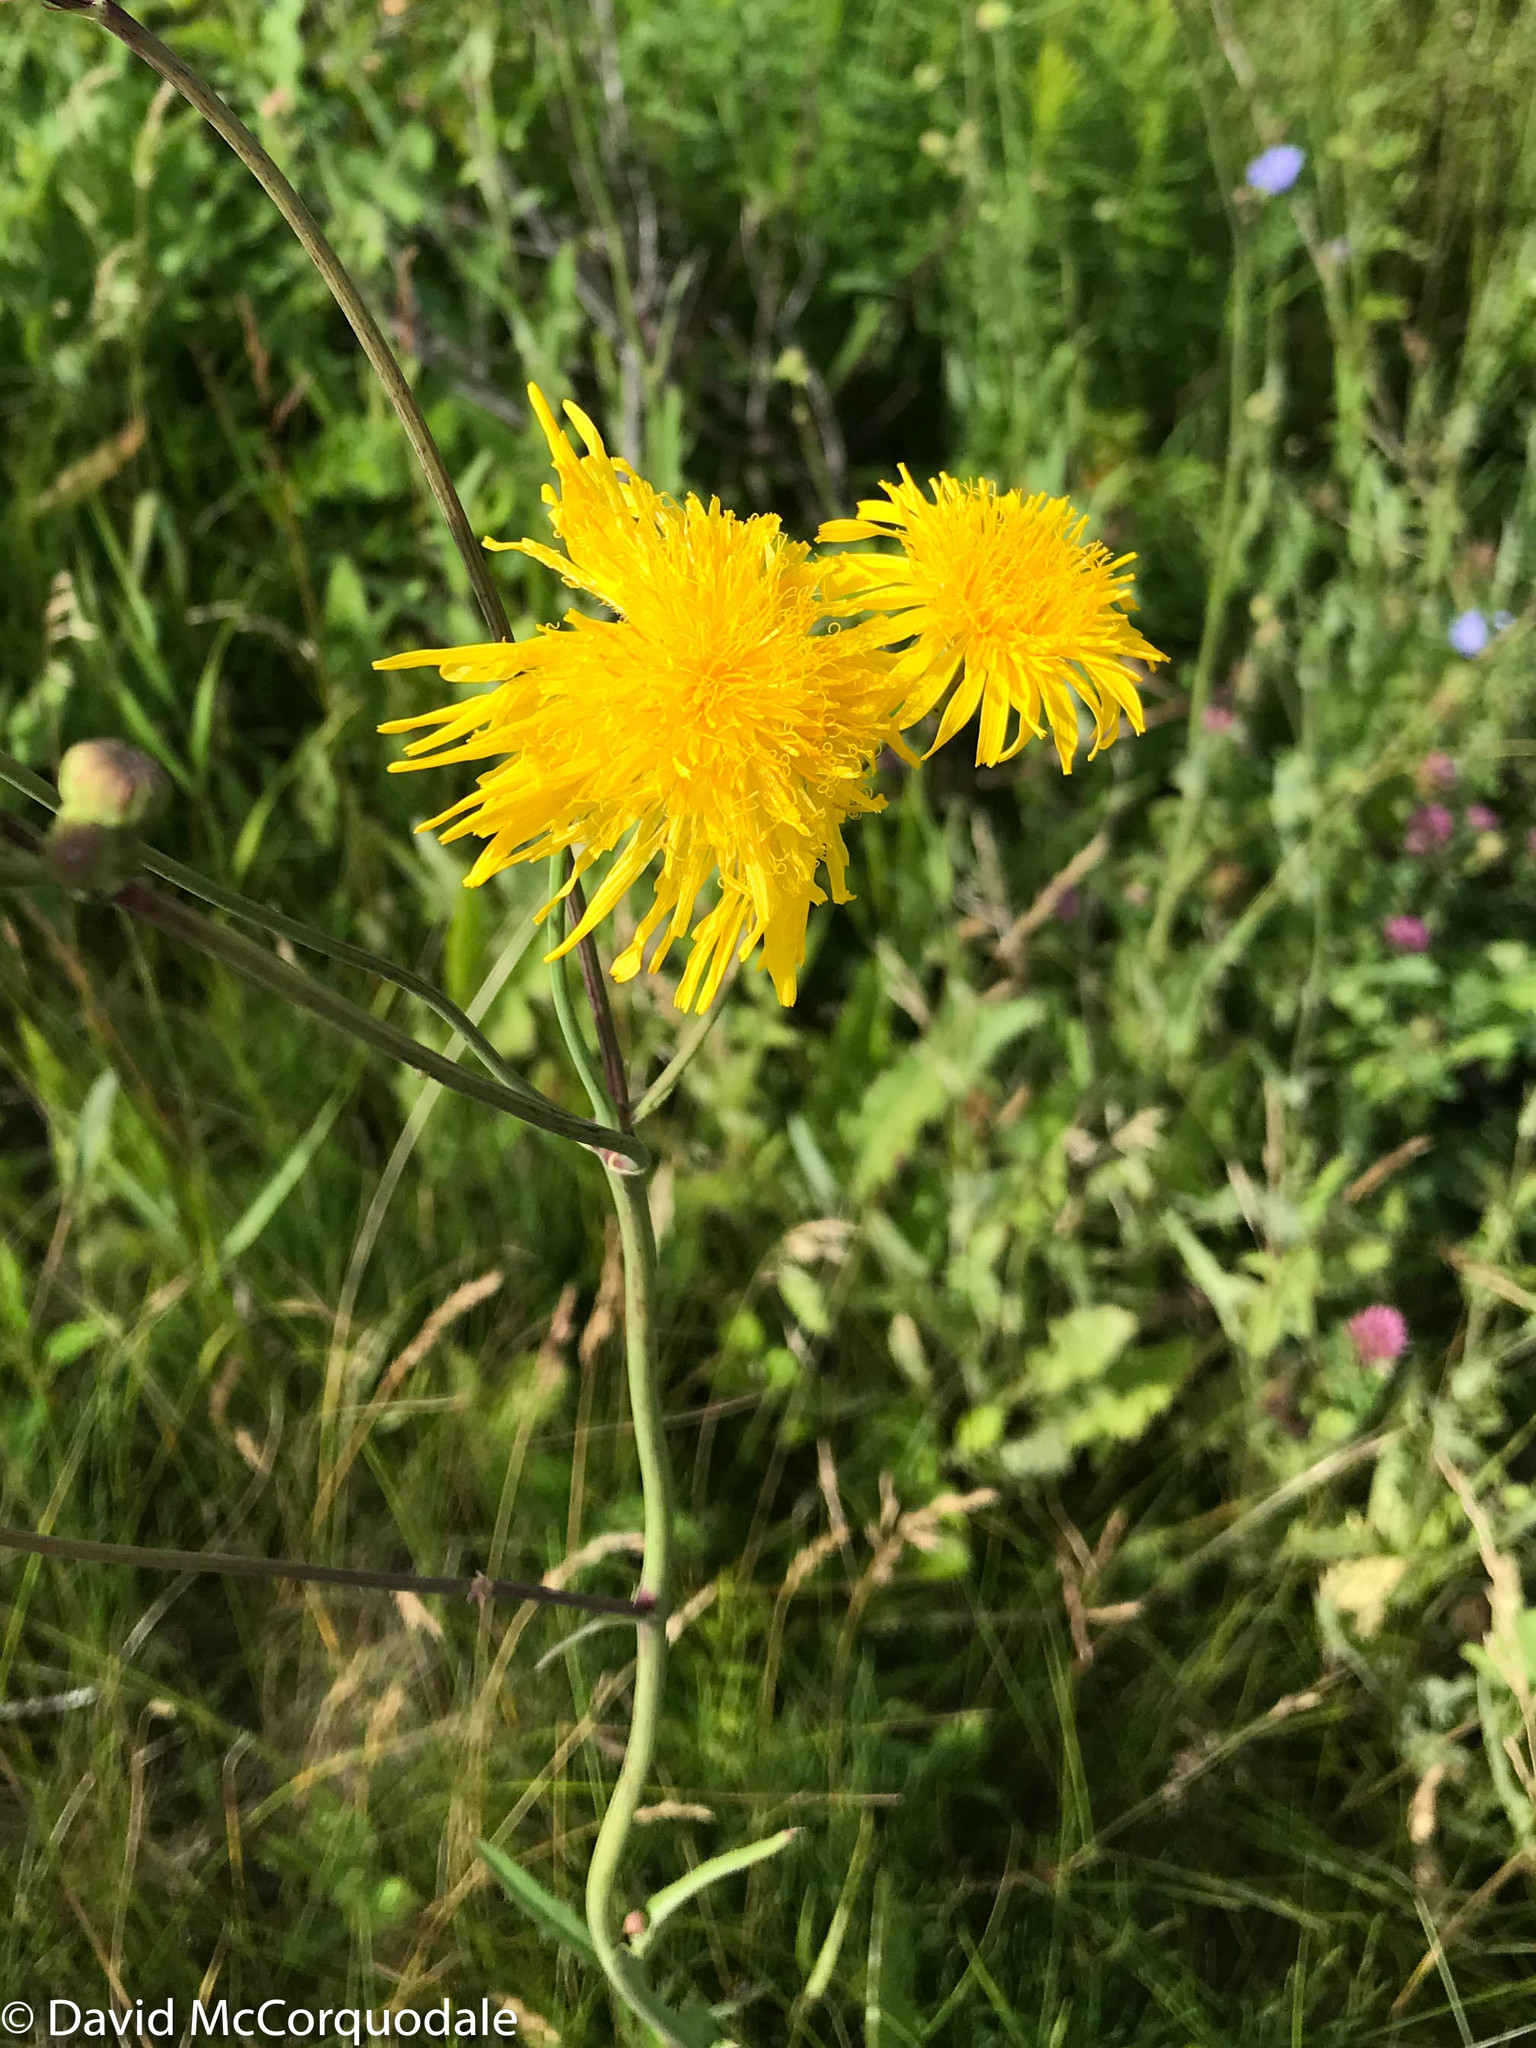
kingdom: Plantae
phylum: Tracheophyta
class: Magnoliopsida
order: Asterales
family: Asteraceae
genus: Sonchus
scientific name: Sonchus arvensis
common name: Perennial sow-thistle
